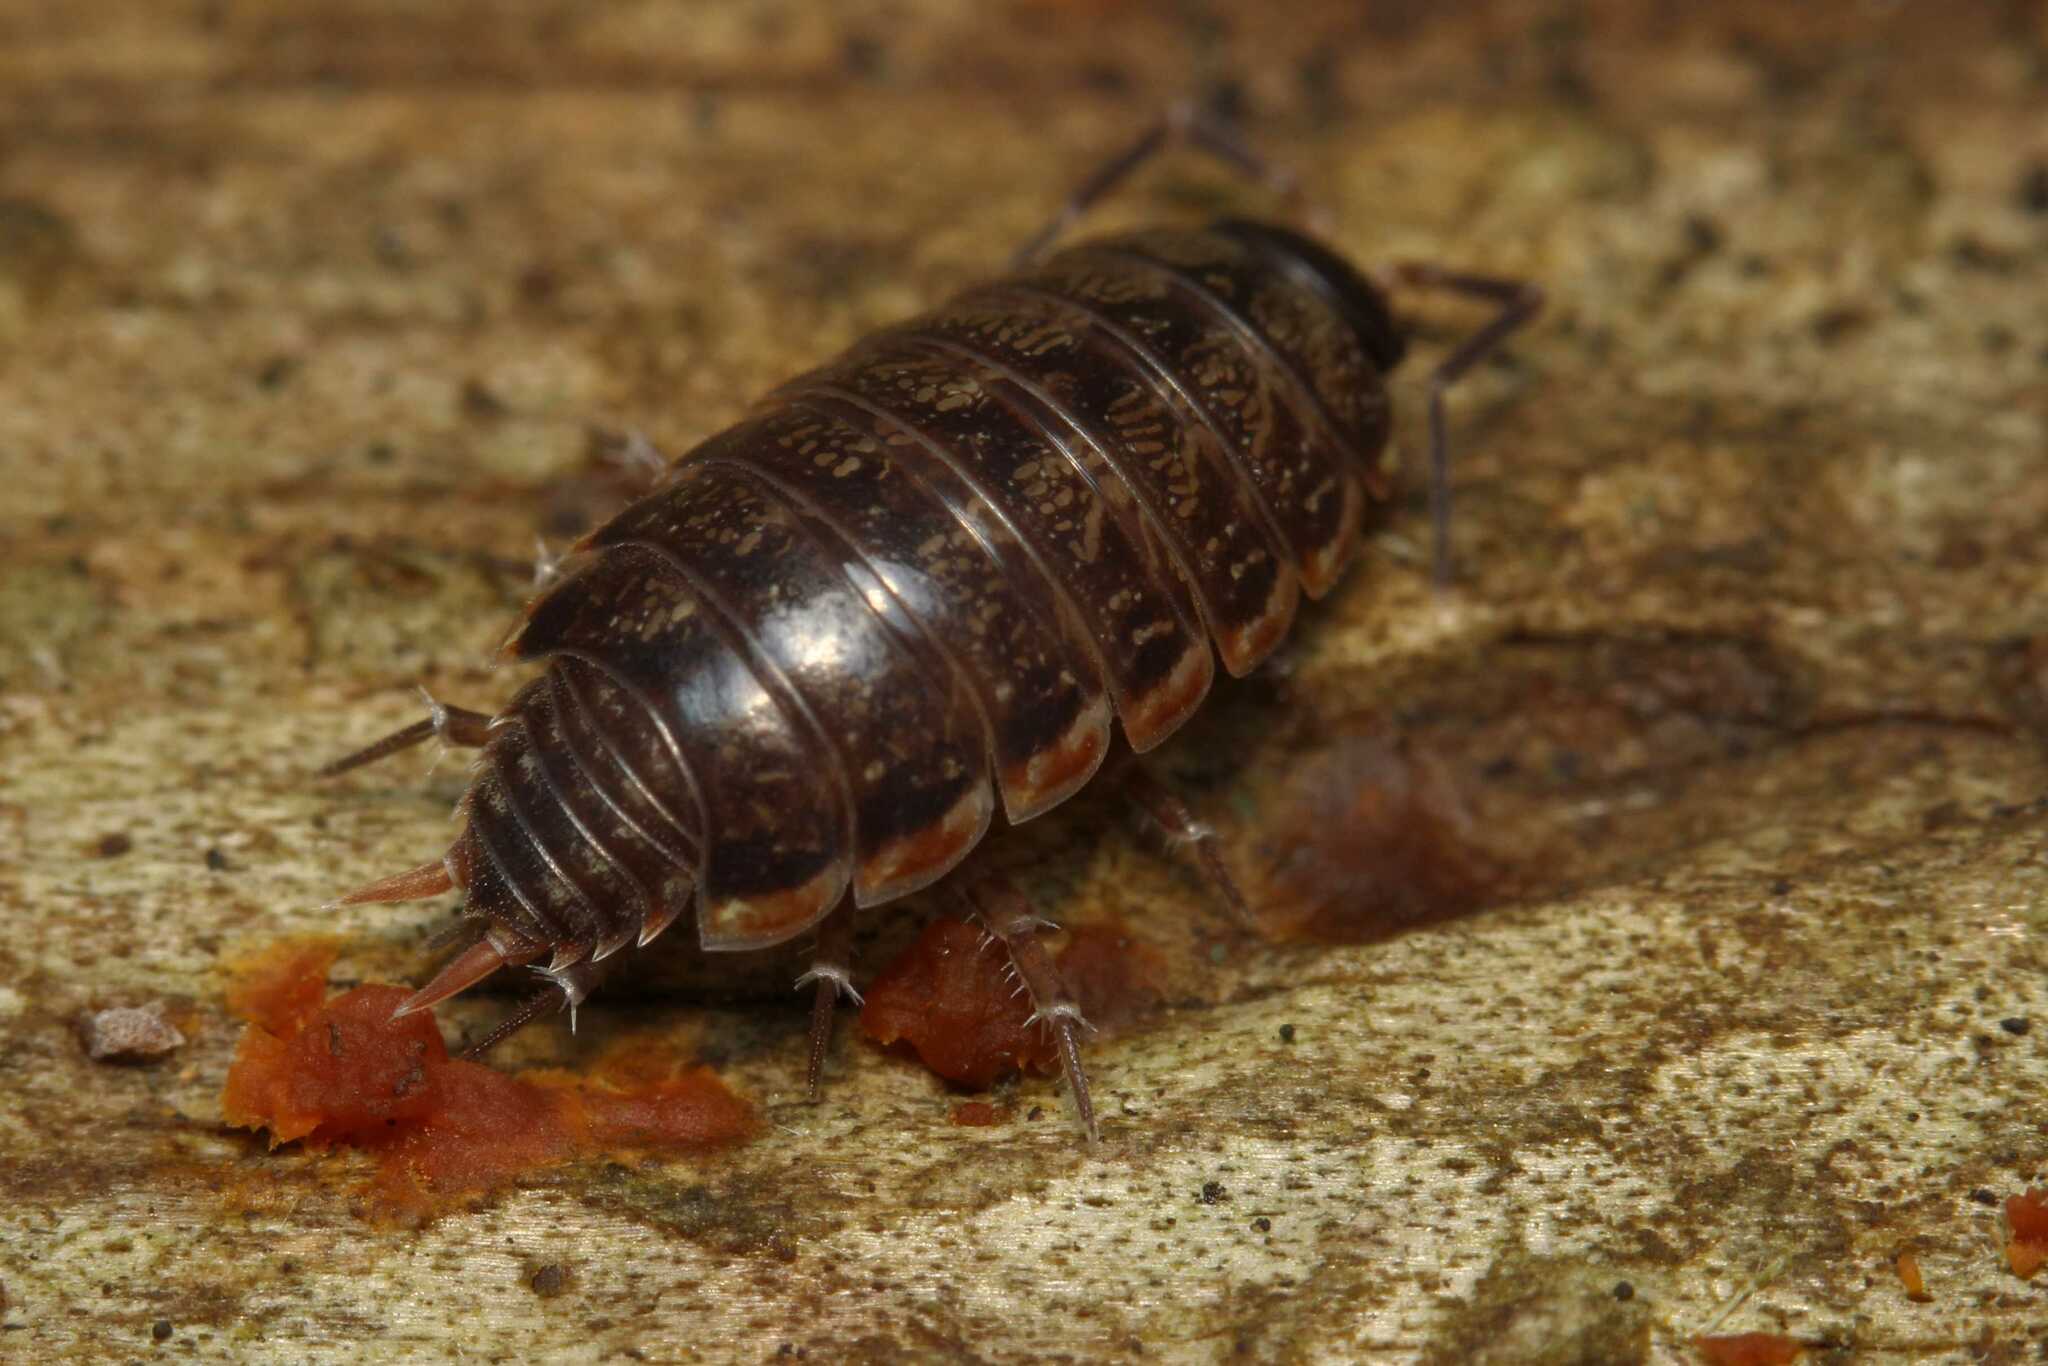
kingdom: Animalia
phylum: Arthropoda
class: Malacostraca
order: Isopoda
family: Philosciidae
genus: Philoscia
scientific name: Philoscia muscorum
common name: Common striped woodlouse
